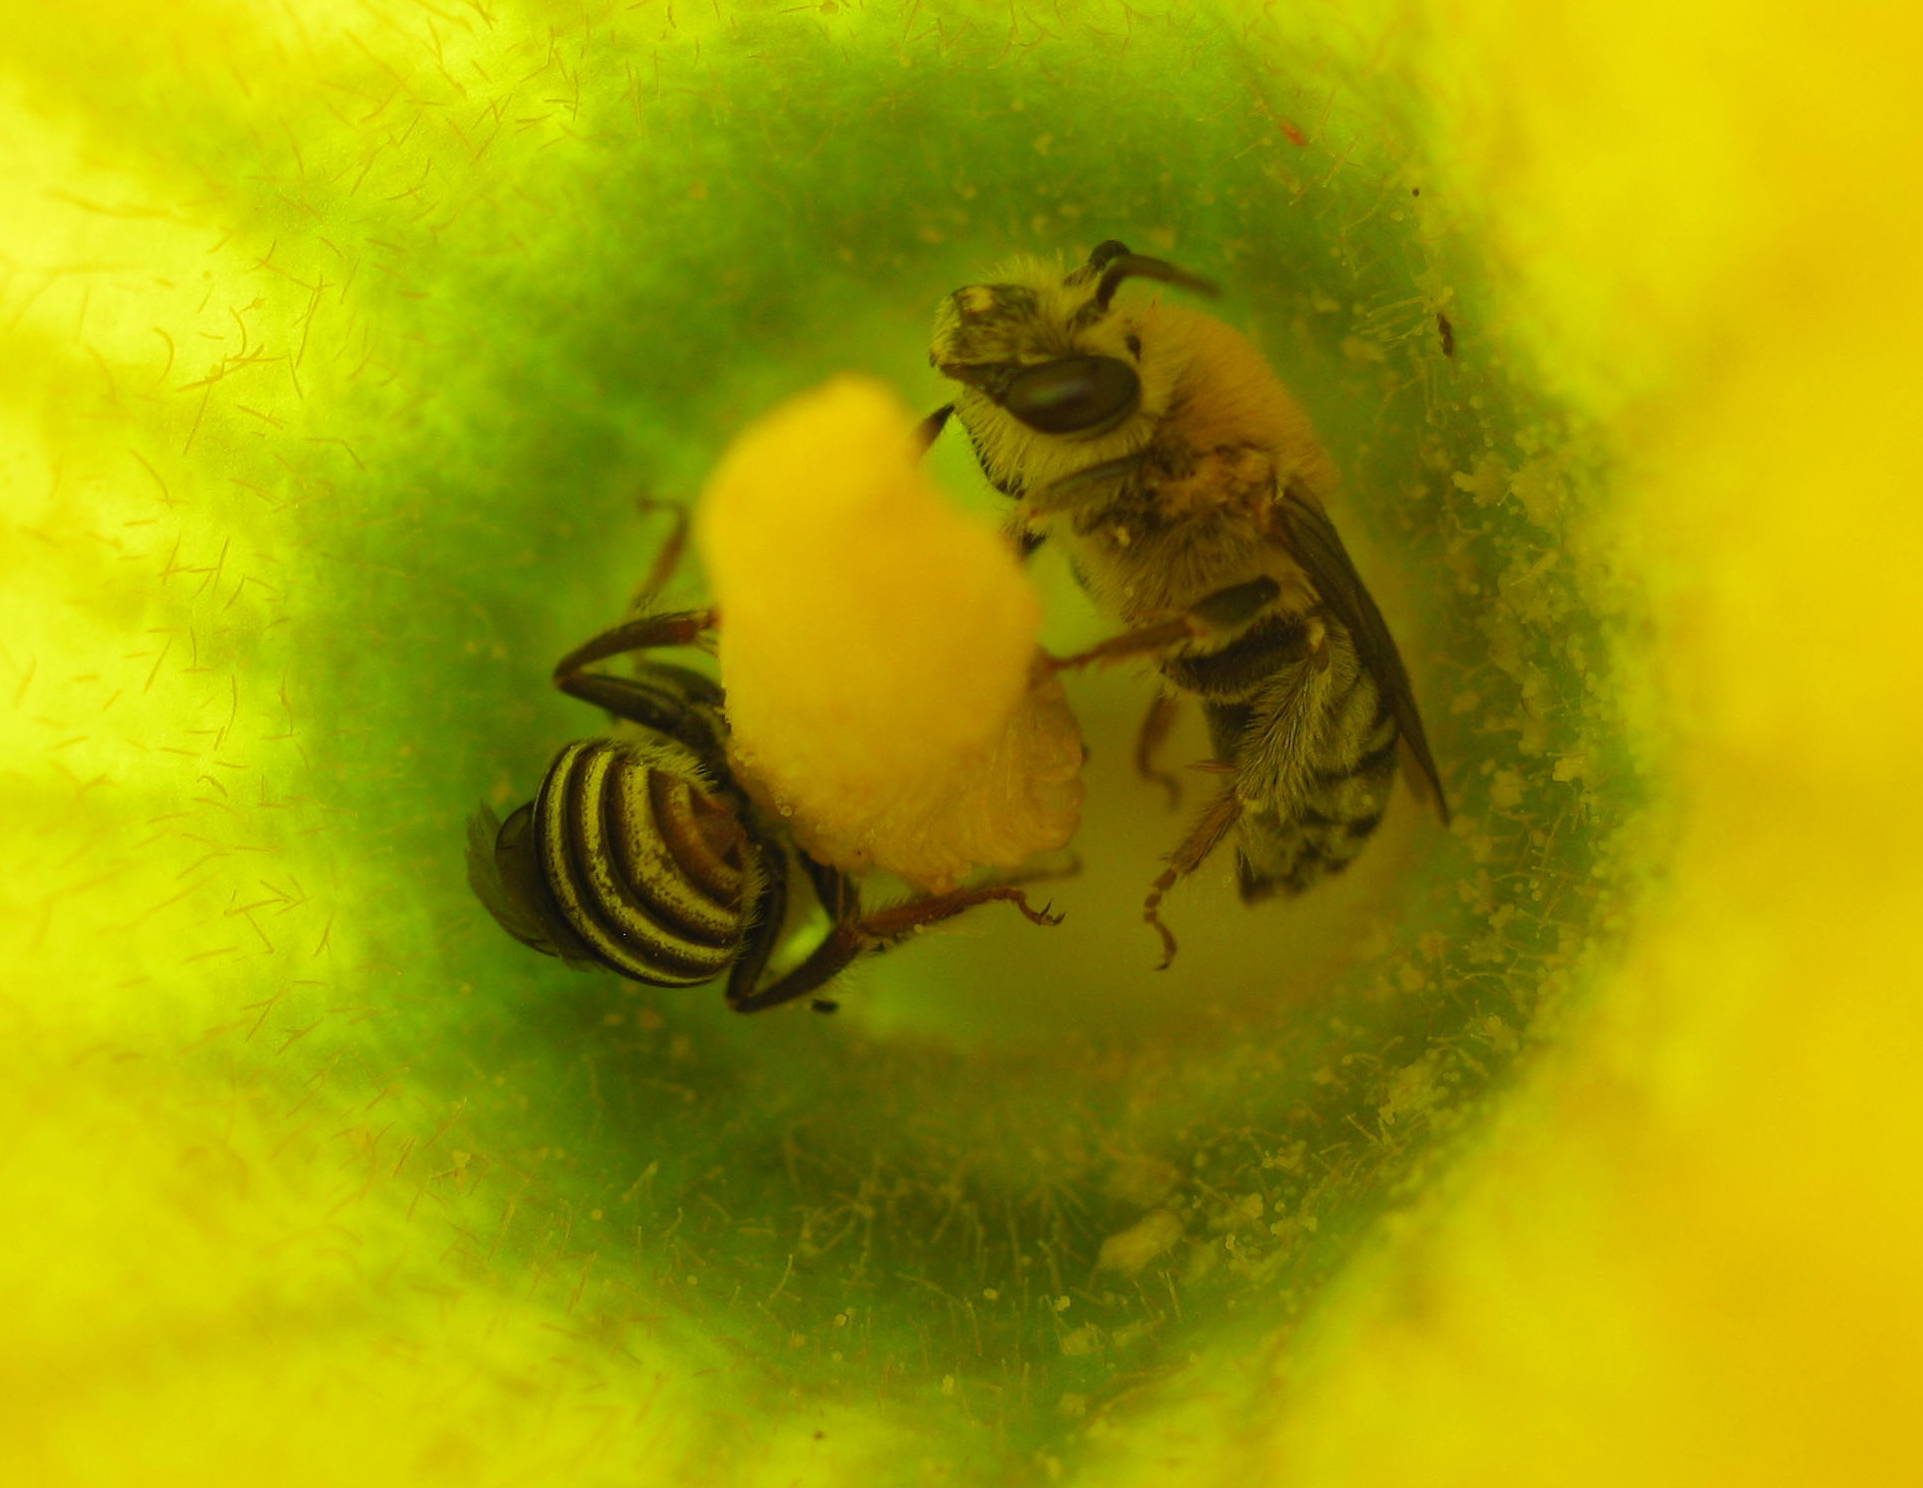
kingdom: Animalia
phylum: Arthropoda
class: Insecta
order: Hymenoptera
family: Apidae
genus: Peponapis
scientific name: Peponapis pruinosa
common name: Pruinose squash bee
